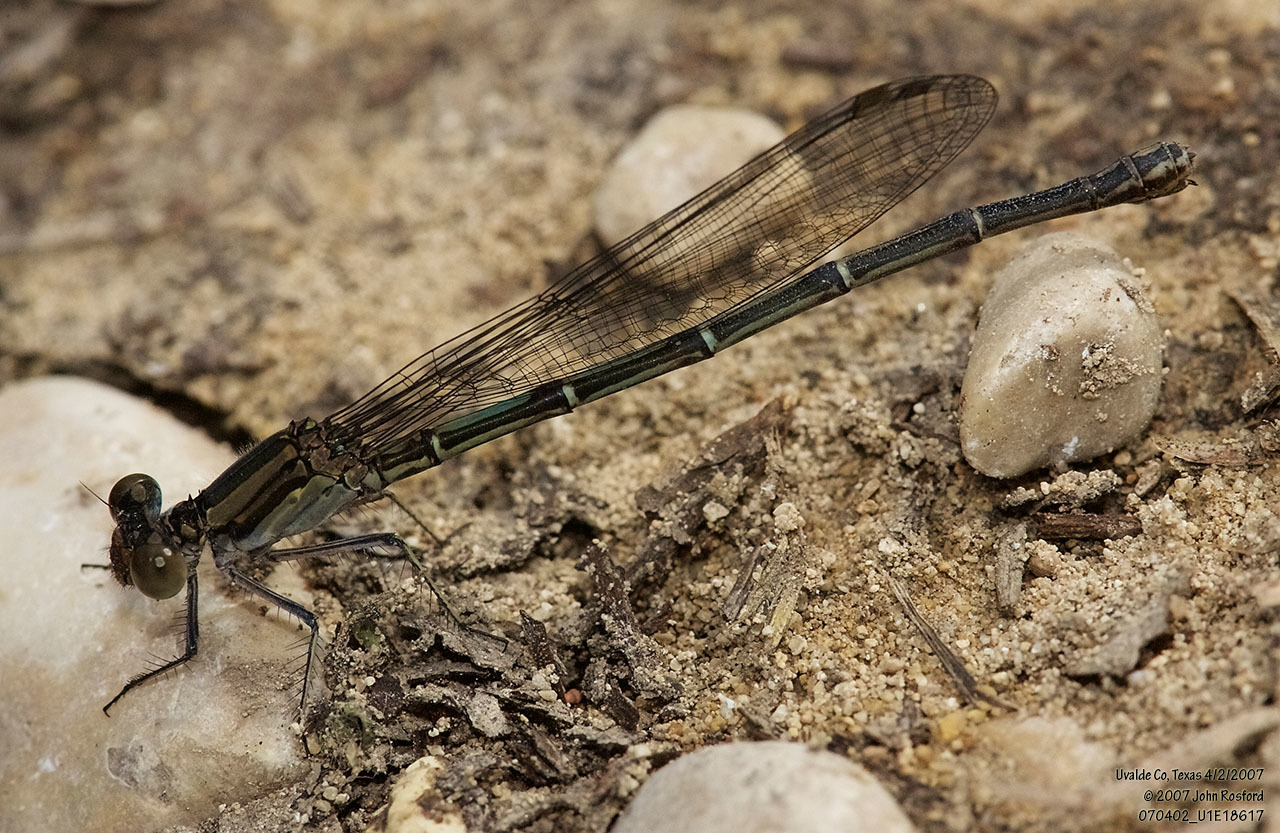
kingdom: Animalia
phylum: Arthropoda
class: Insecta
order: Odonata
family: Coenagrionidae
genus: Argia
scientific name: Argia translata
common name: Dusky dancer
